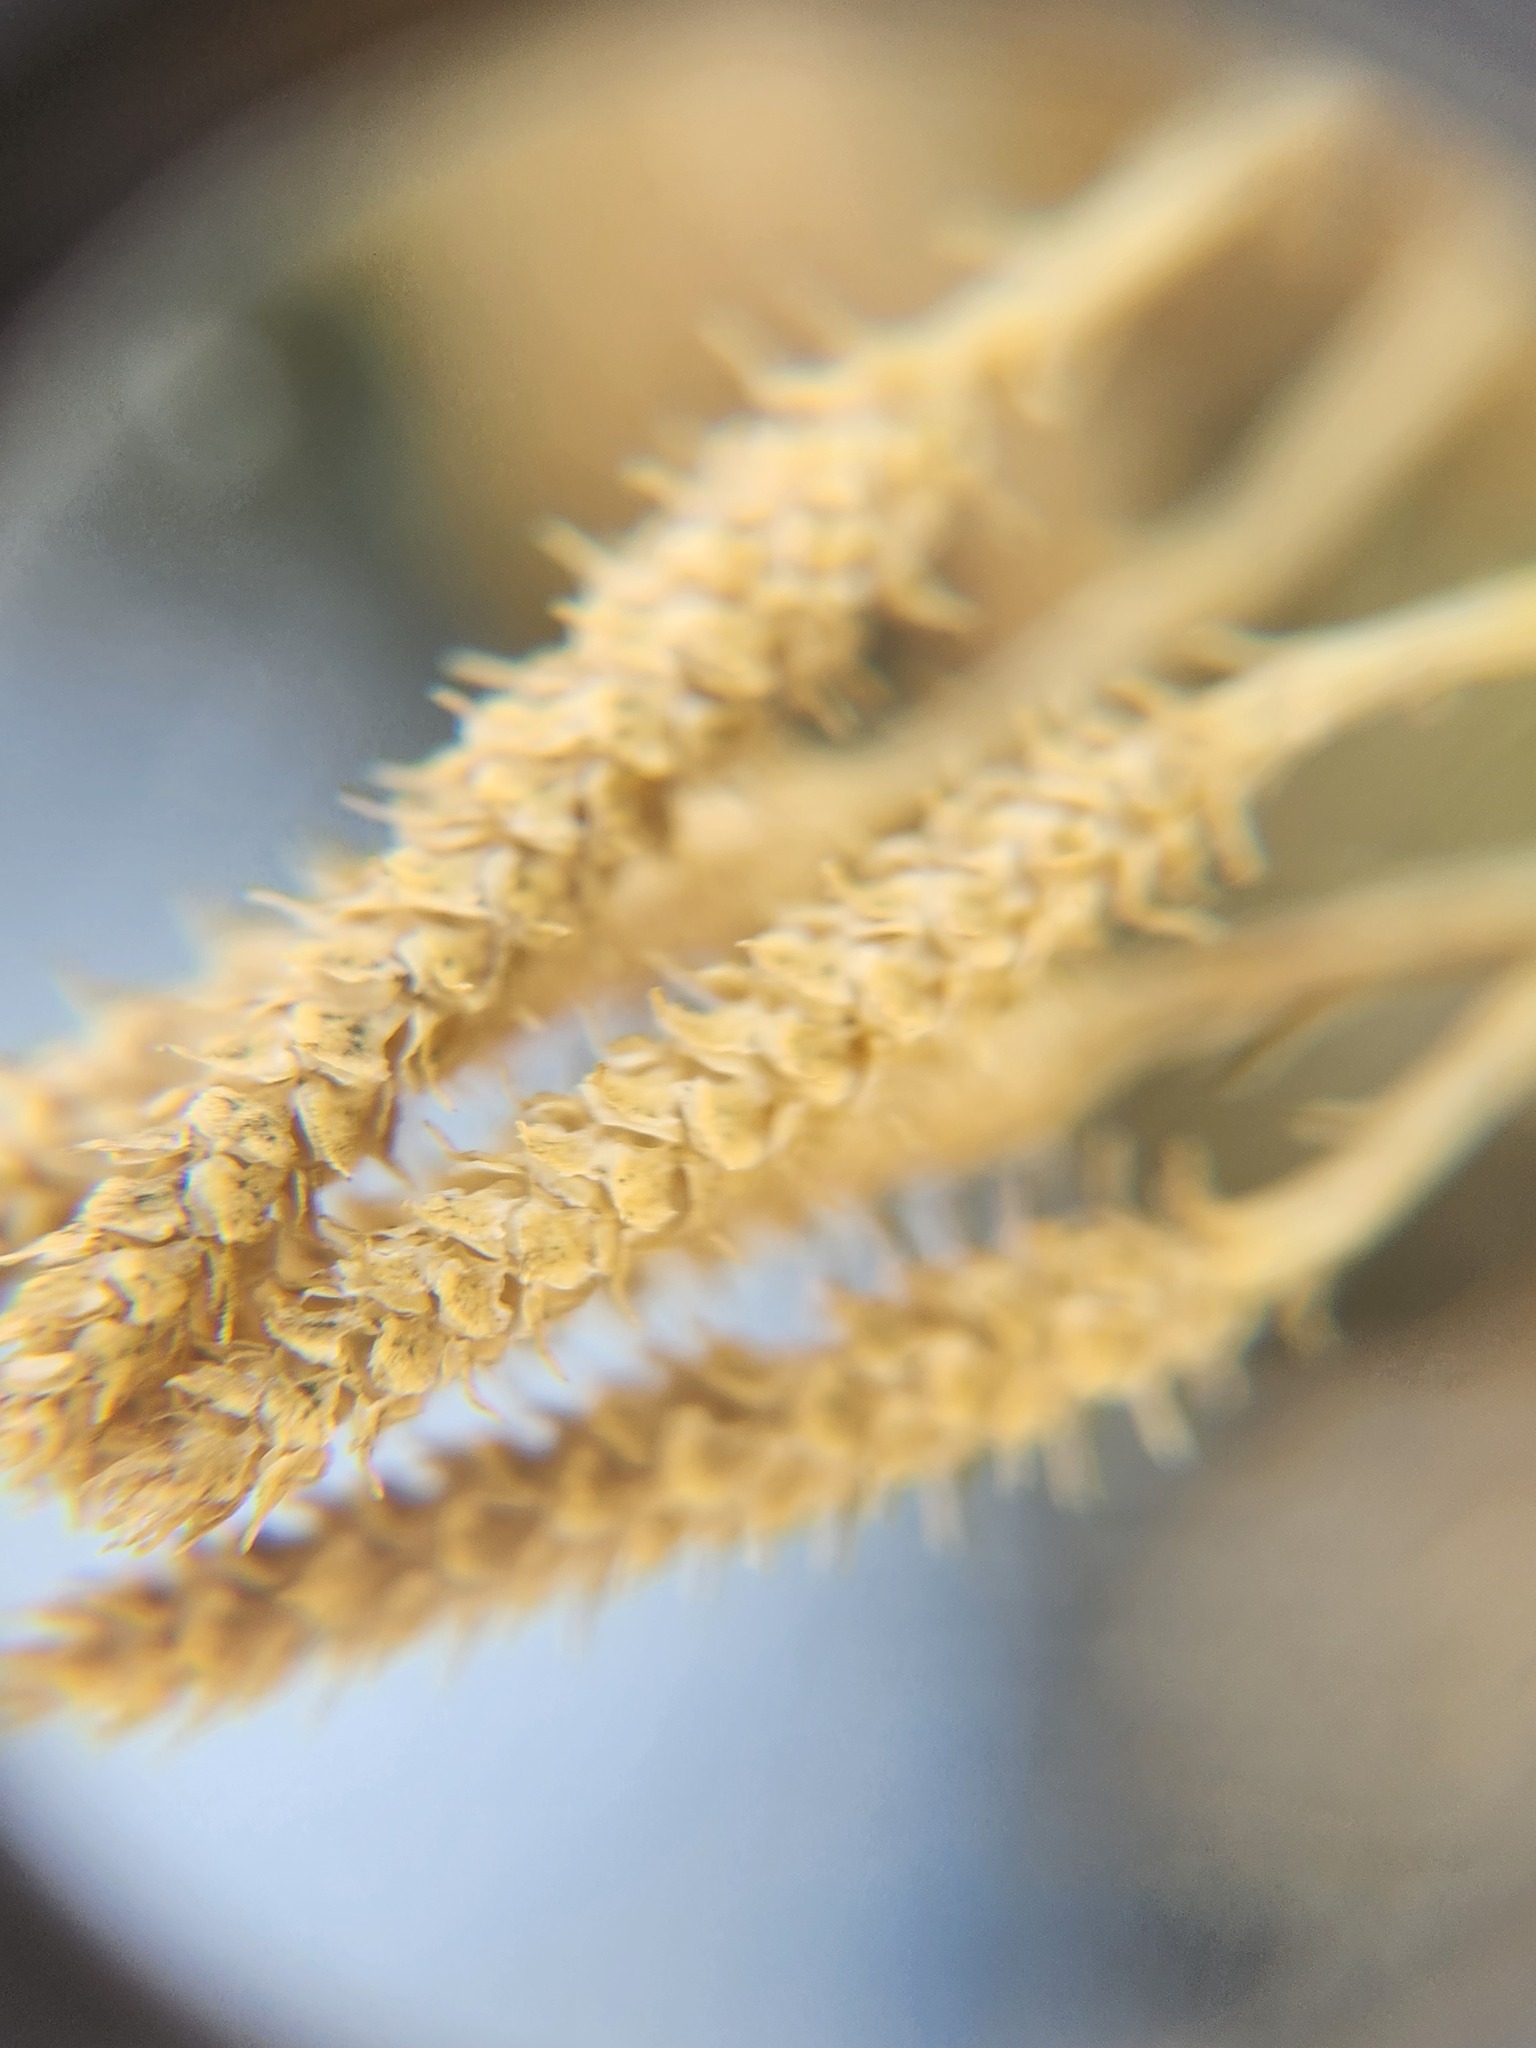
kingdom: Plantae
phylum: Tracheophyta
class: Lycopodiopsida
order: Lycopodiales
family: Lycopodiaceae
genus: Diphasiastrum
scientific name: Diphasiastrum tristachyum
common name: Blue ground-cedar
